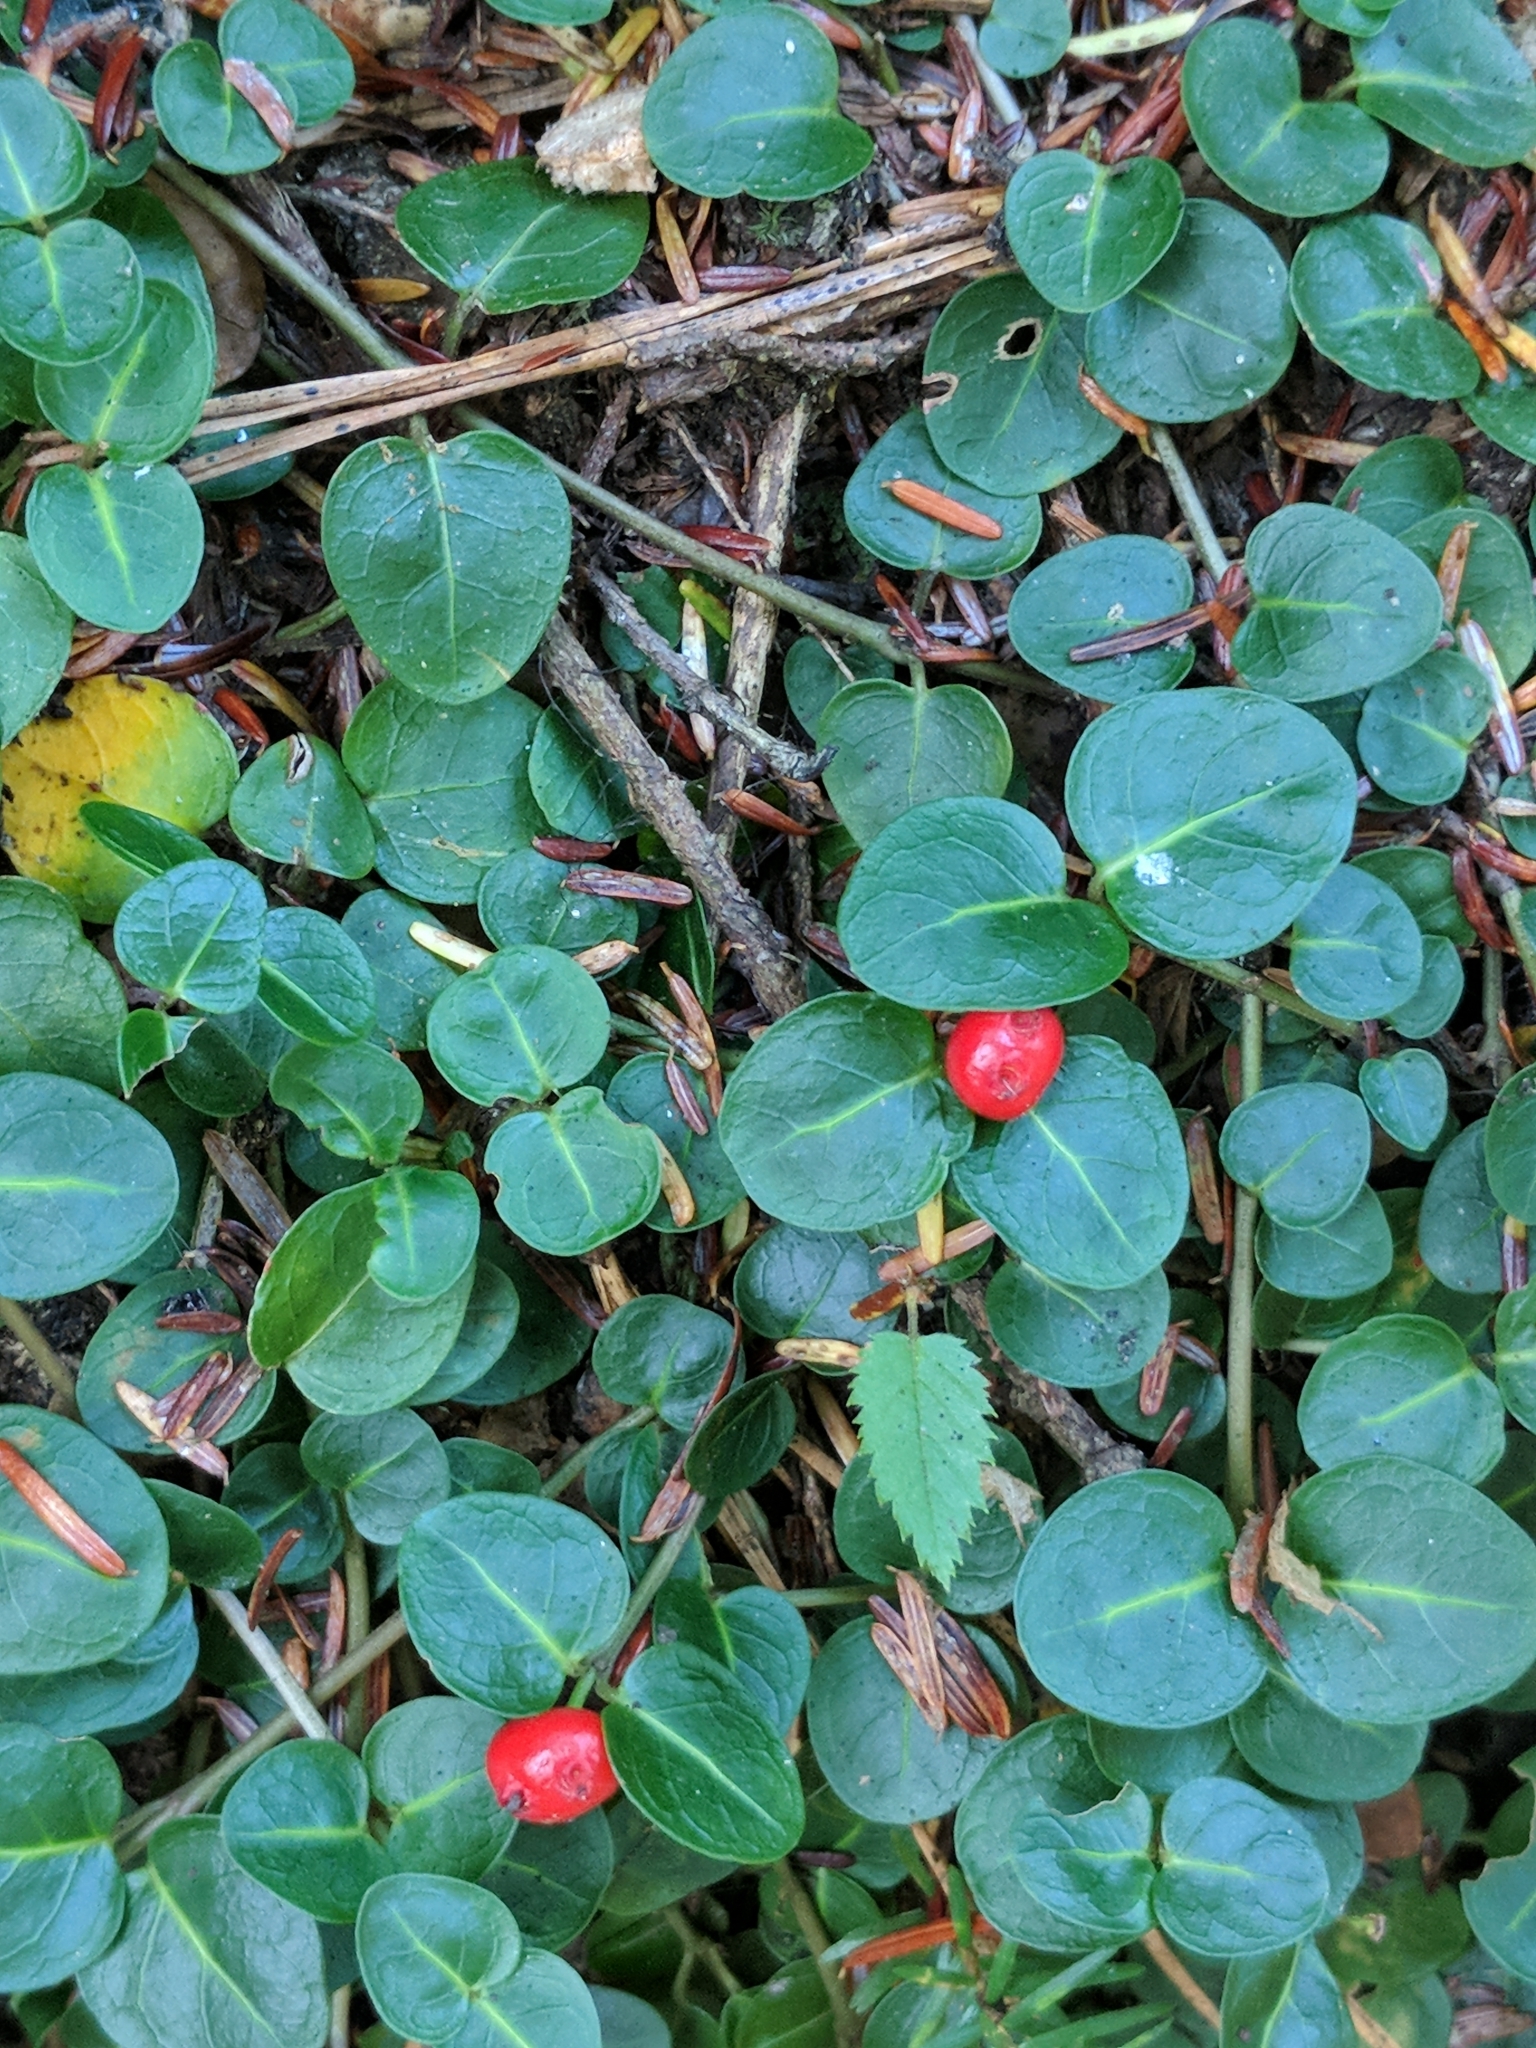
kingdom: Plantae
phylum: Tracheophyta
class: Magnoliopsida
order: Gentianales
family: Rubiaceae
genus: Mitchella
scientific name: Mitchella repens
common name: Partridge-berry
